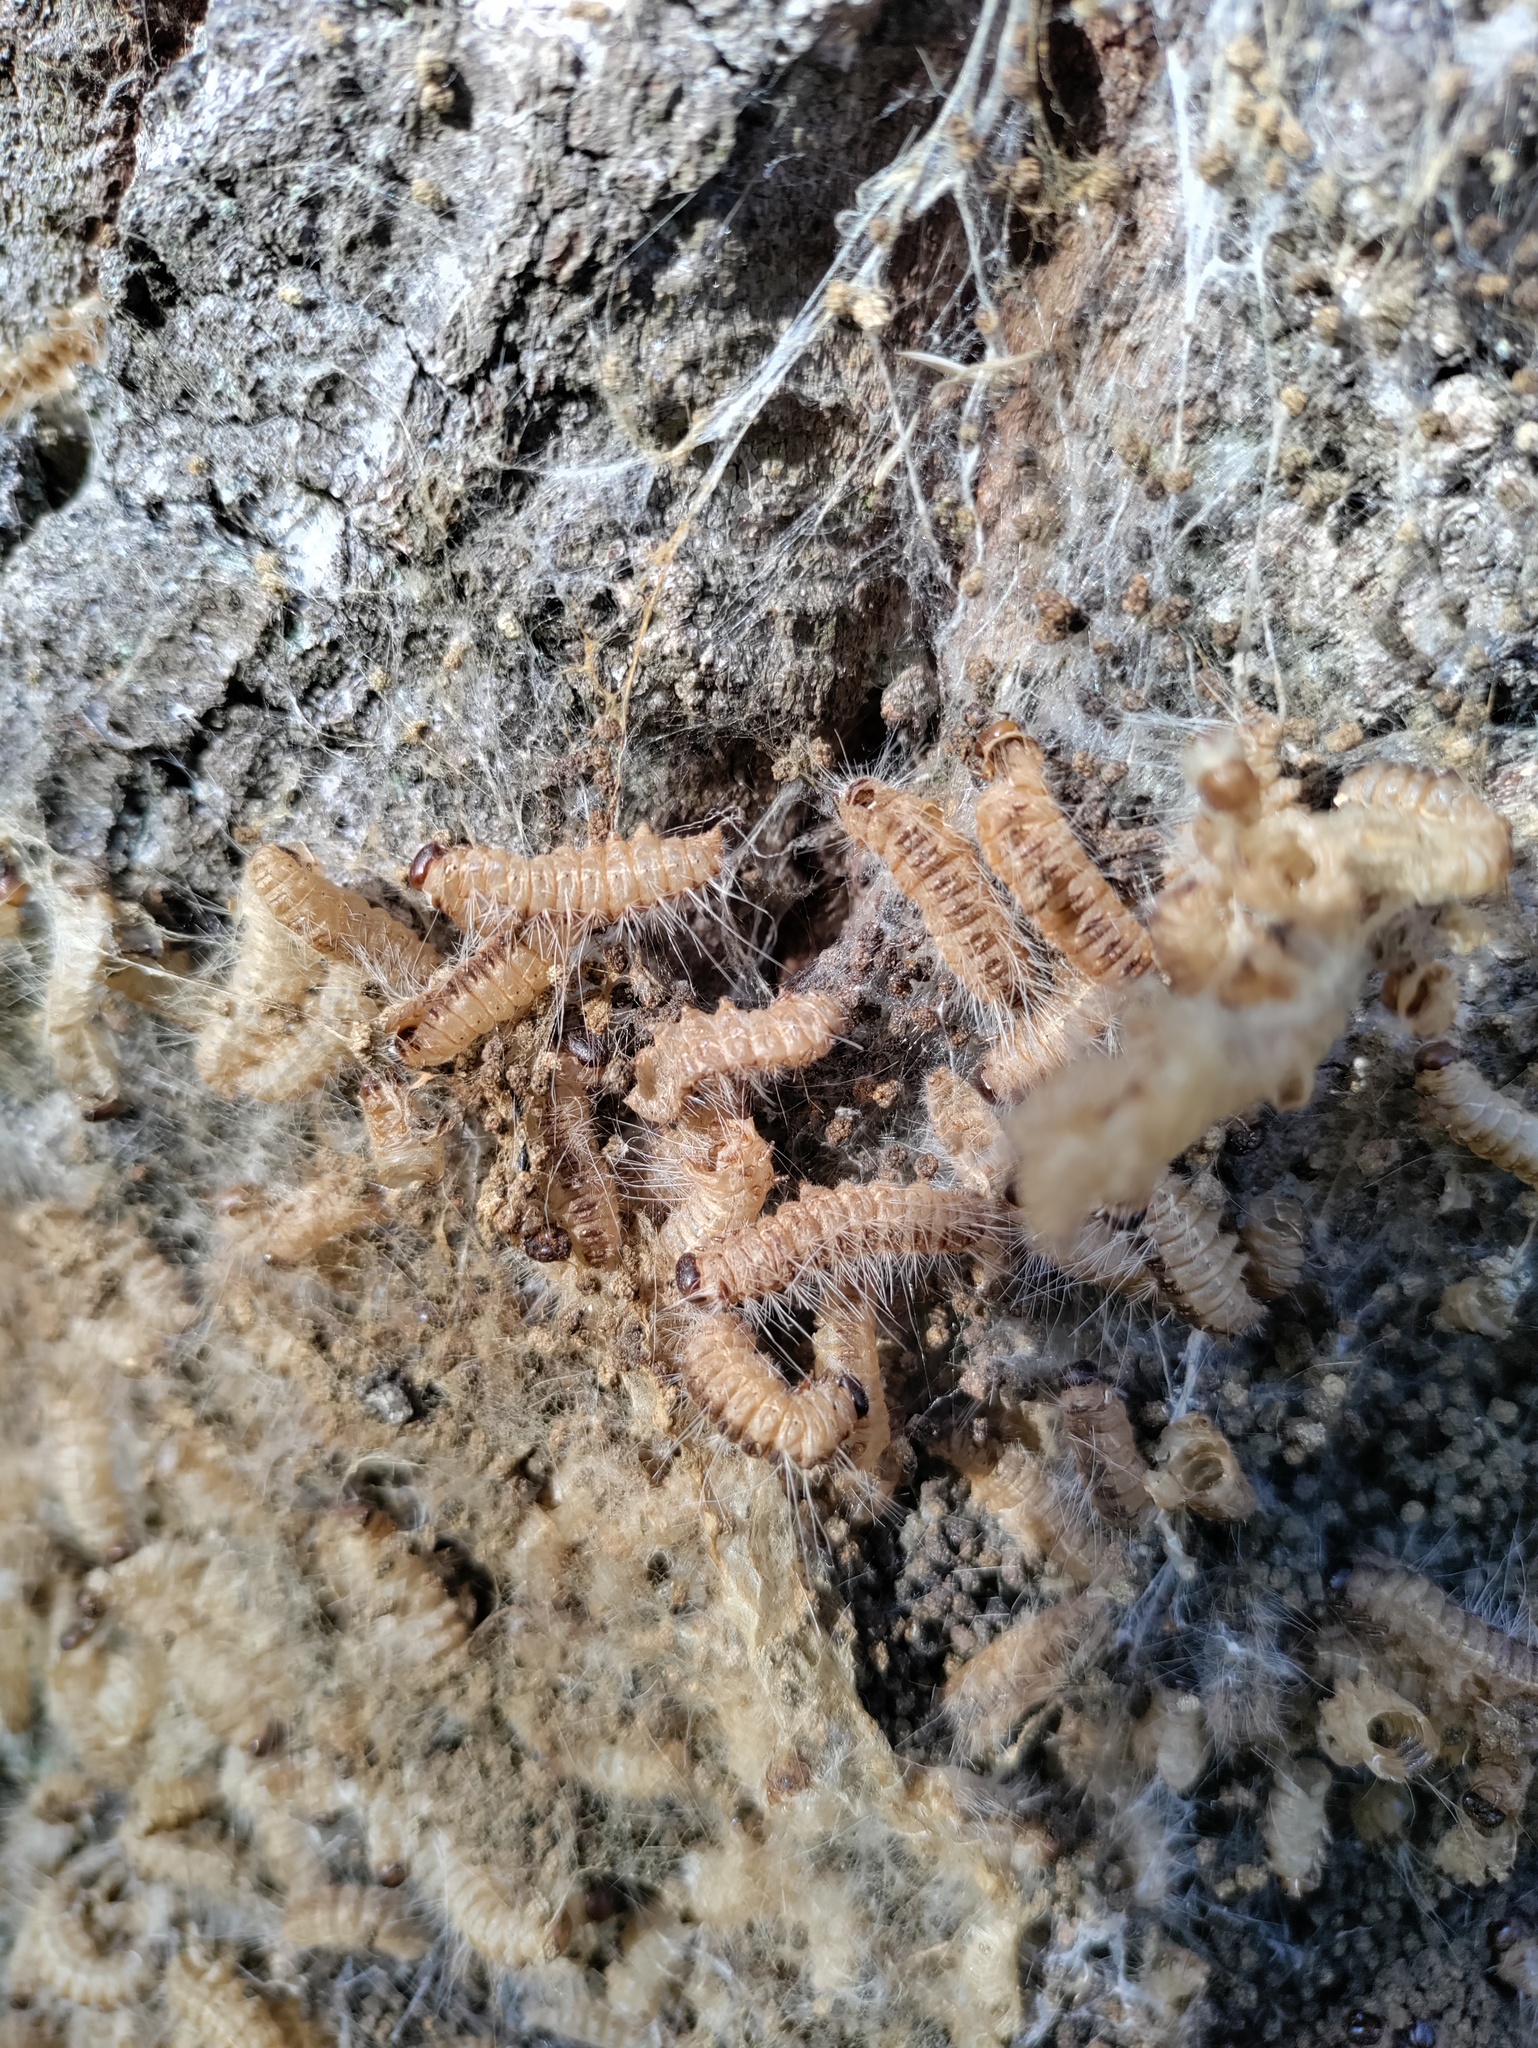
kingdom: Animalia
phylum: Arthropoda
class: Insecta
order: Lepidoptera
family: Notodontidae
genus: Thaumetopoea
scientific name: Thaumetopoea processionea
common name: Oak processionea
